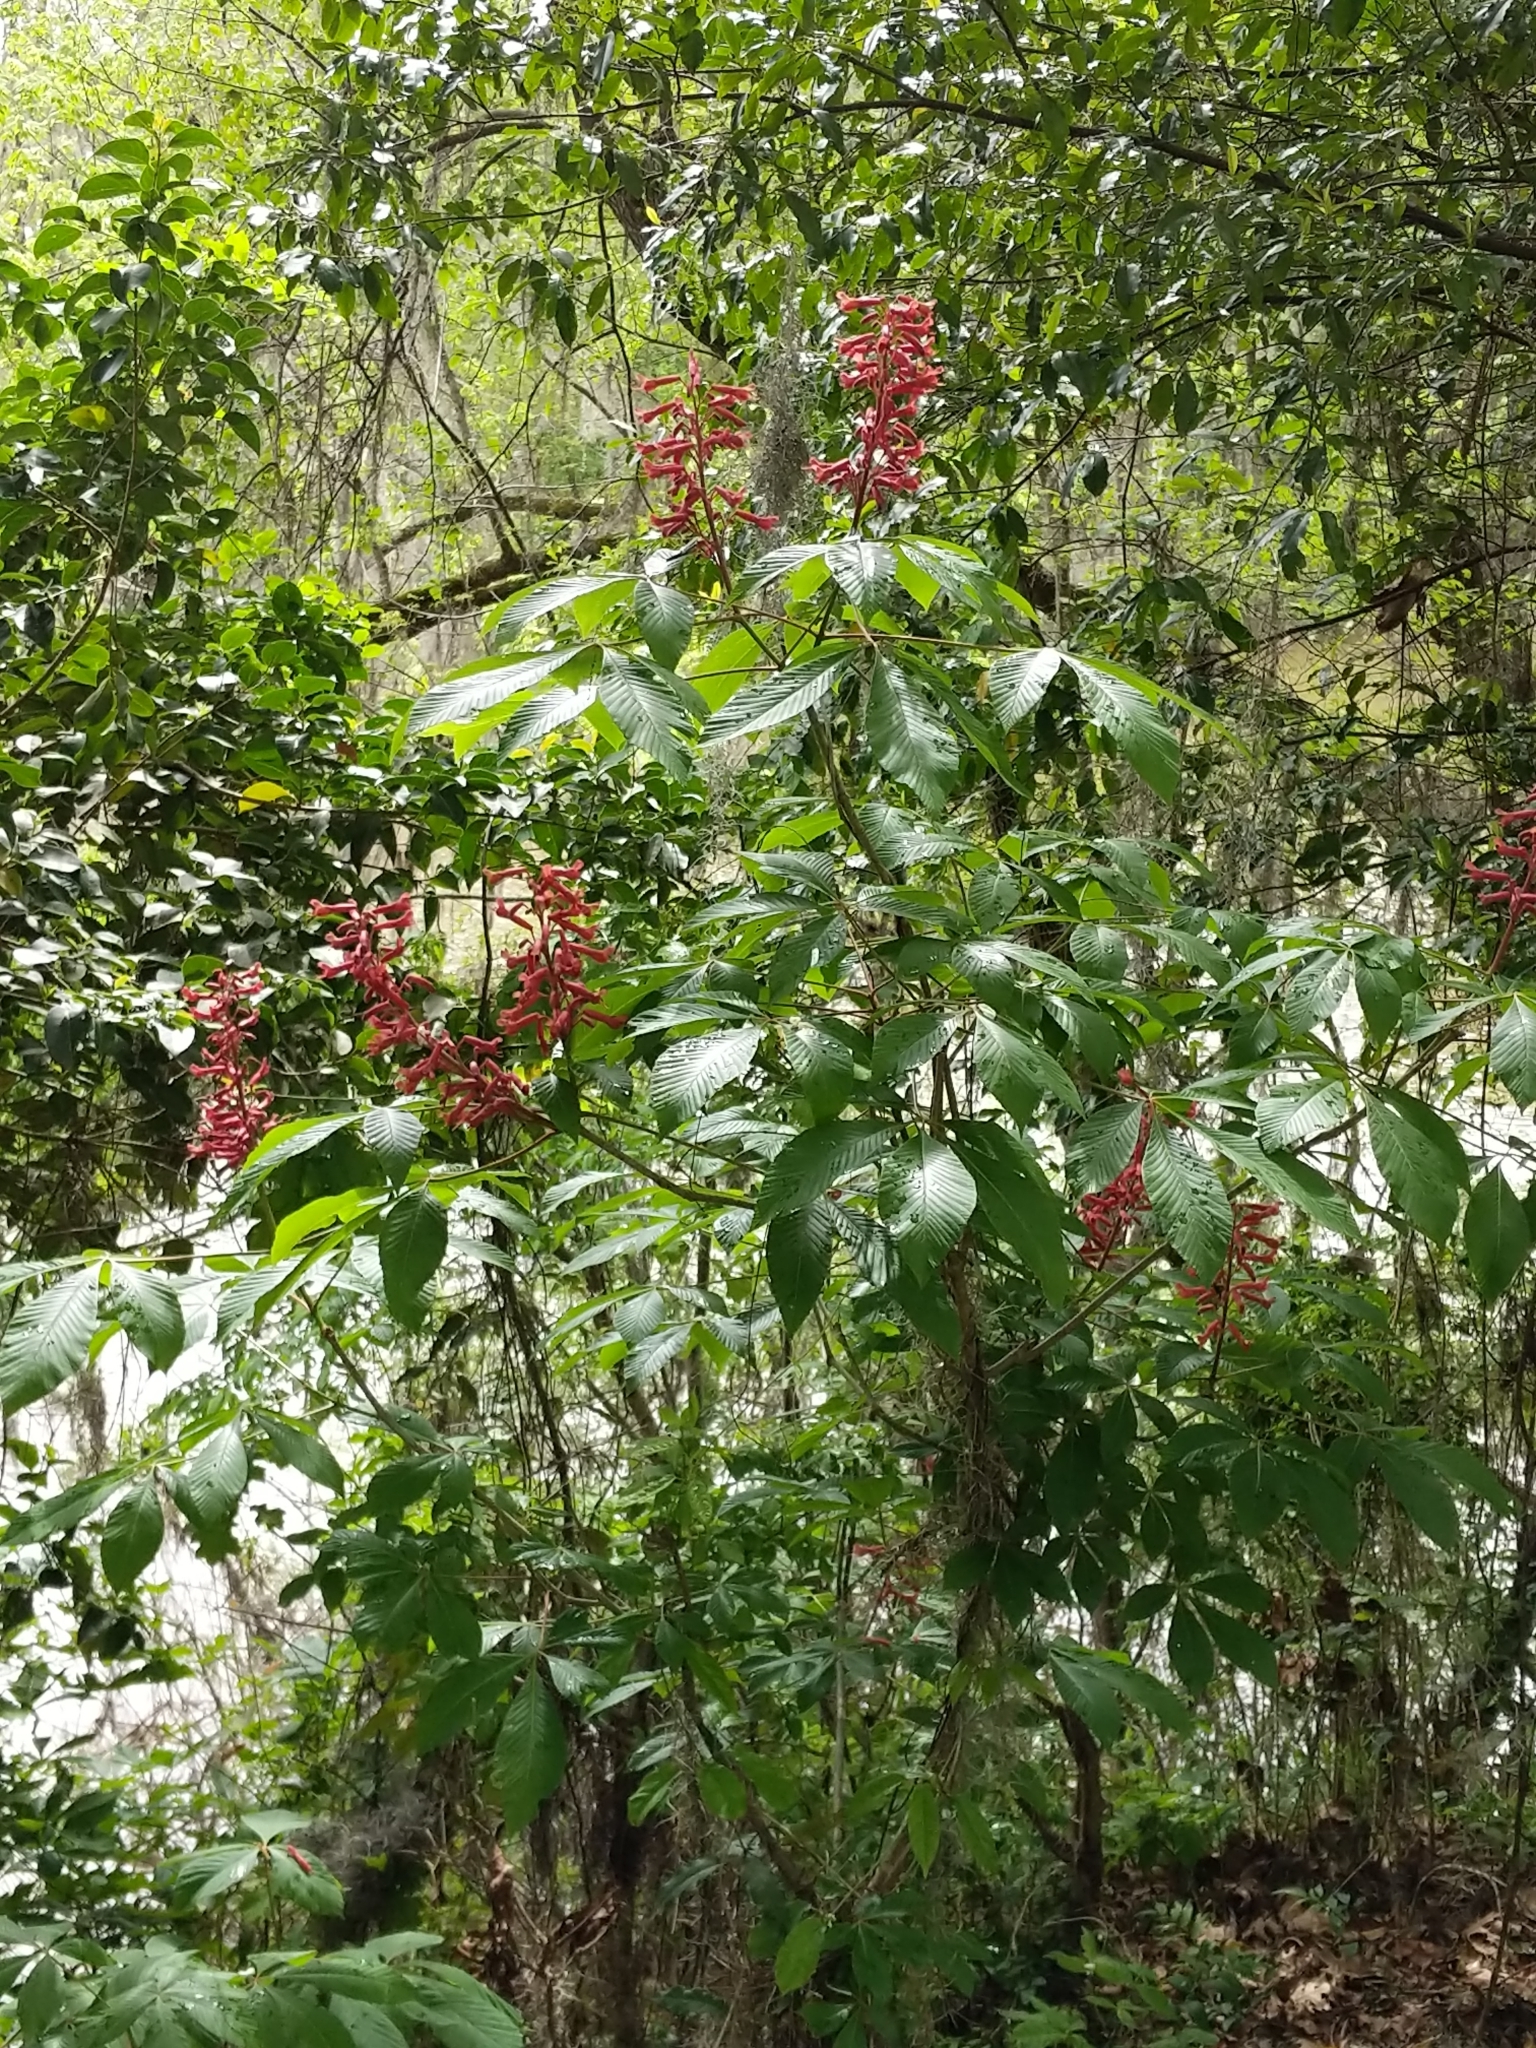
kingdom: Plantae
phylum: Tracheophyta
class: Magnoliopsida
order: Sapindales
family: Sapindaceae
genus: Aesculus
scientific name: Aesculus pavia
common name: Red buckeye
